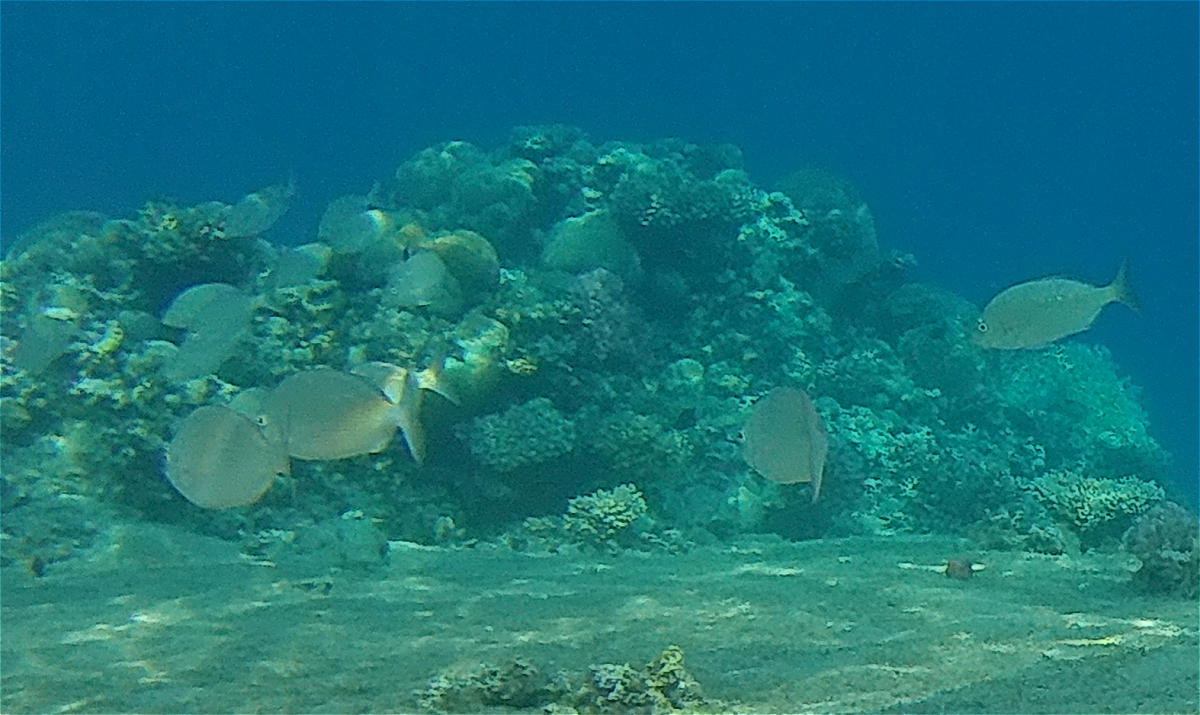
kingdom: Animalia
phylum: Chordata
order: Perciformes
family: Sparidae
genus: Diplodus
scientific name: Diplodus noct
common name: Arabian pinfish
